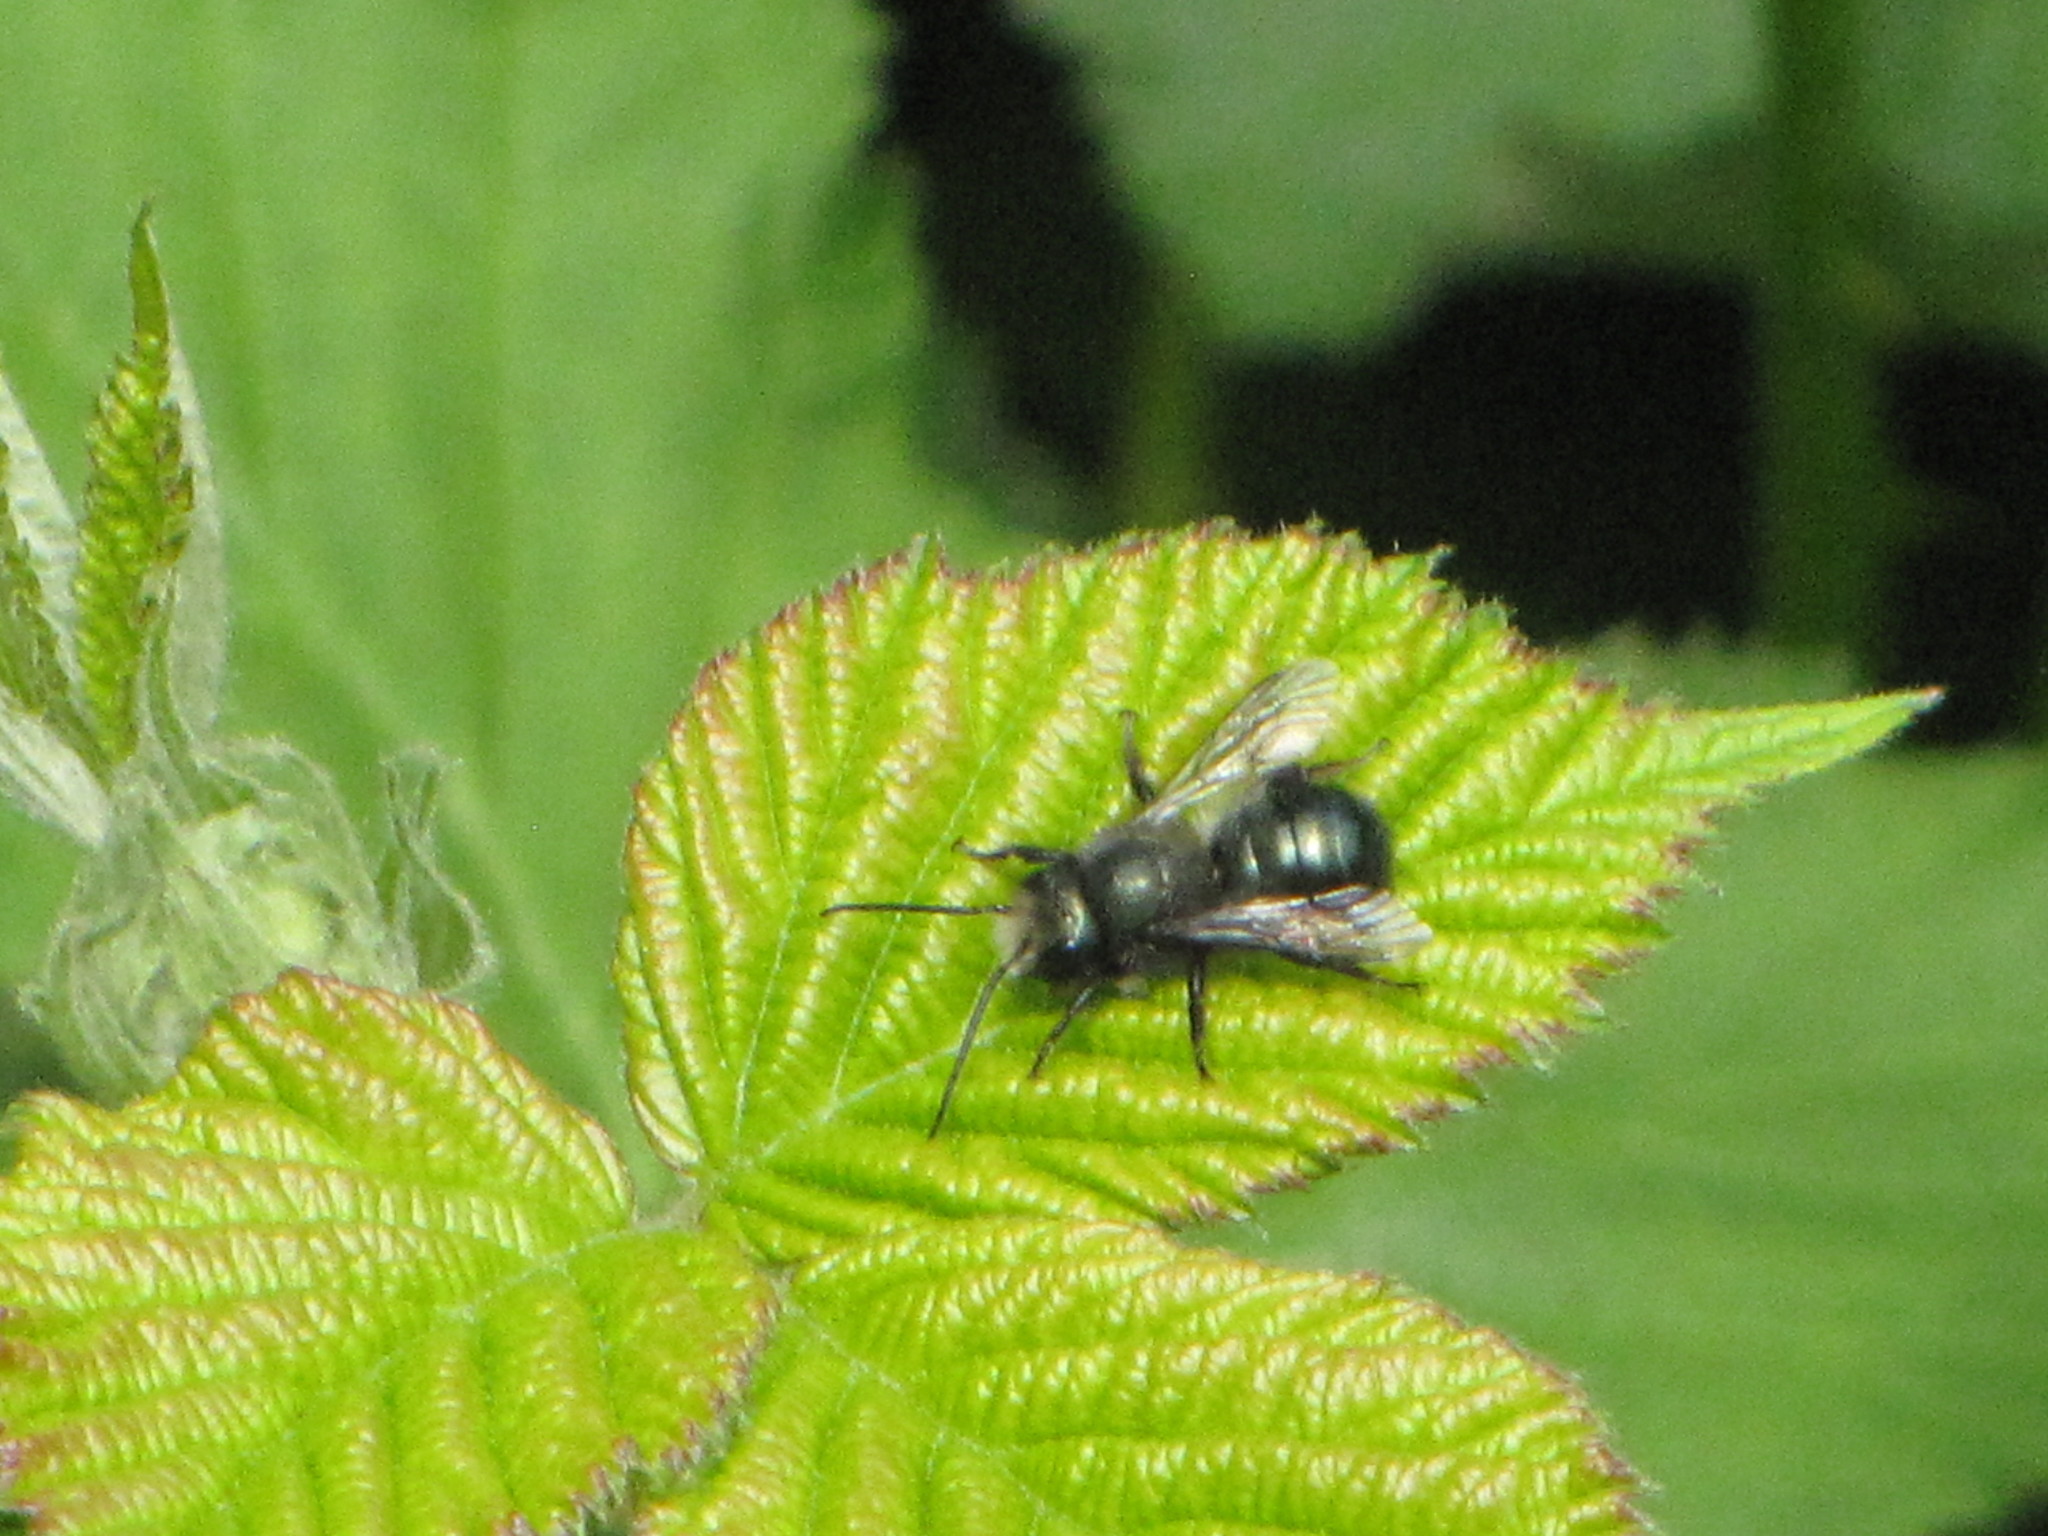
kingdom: Animalia
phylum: Arthropoda
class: Insecta
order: Hymenoptera
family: Megachilidae
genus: Osmia
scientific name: Osmia lignaria
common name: Blue orchard bee
